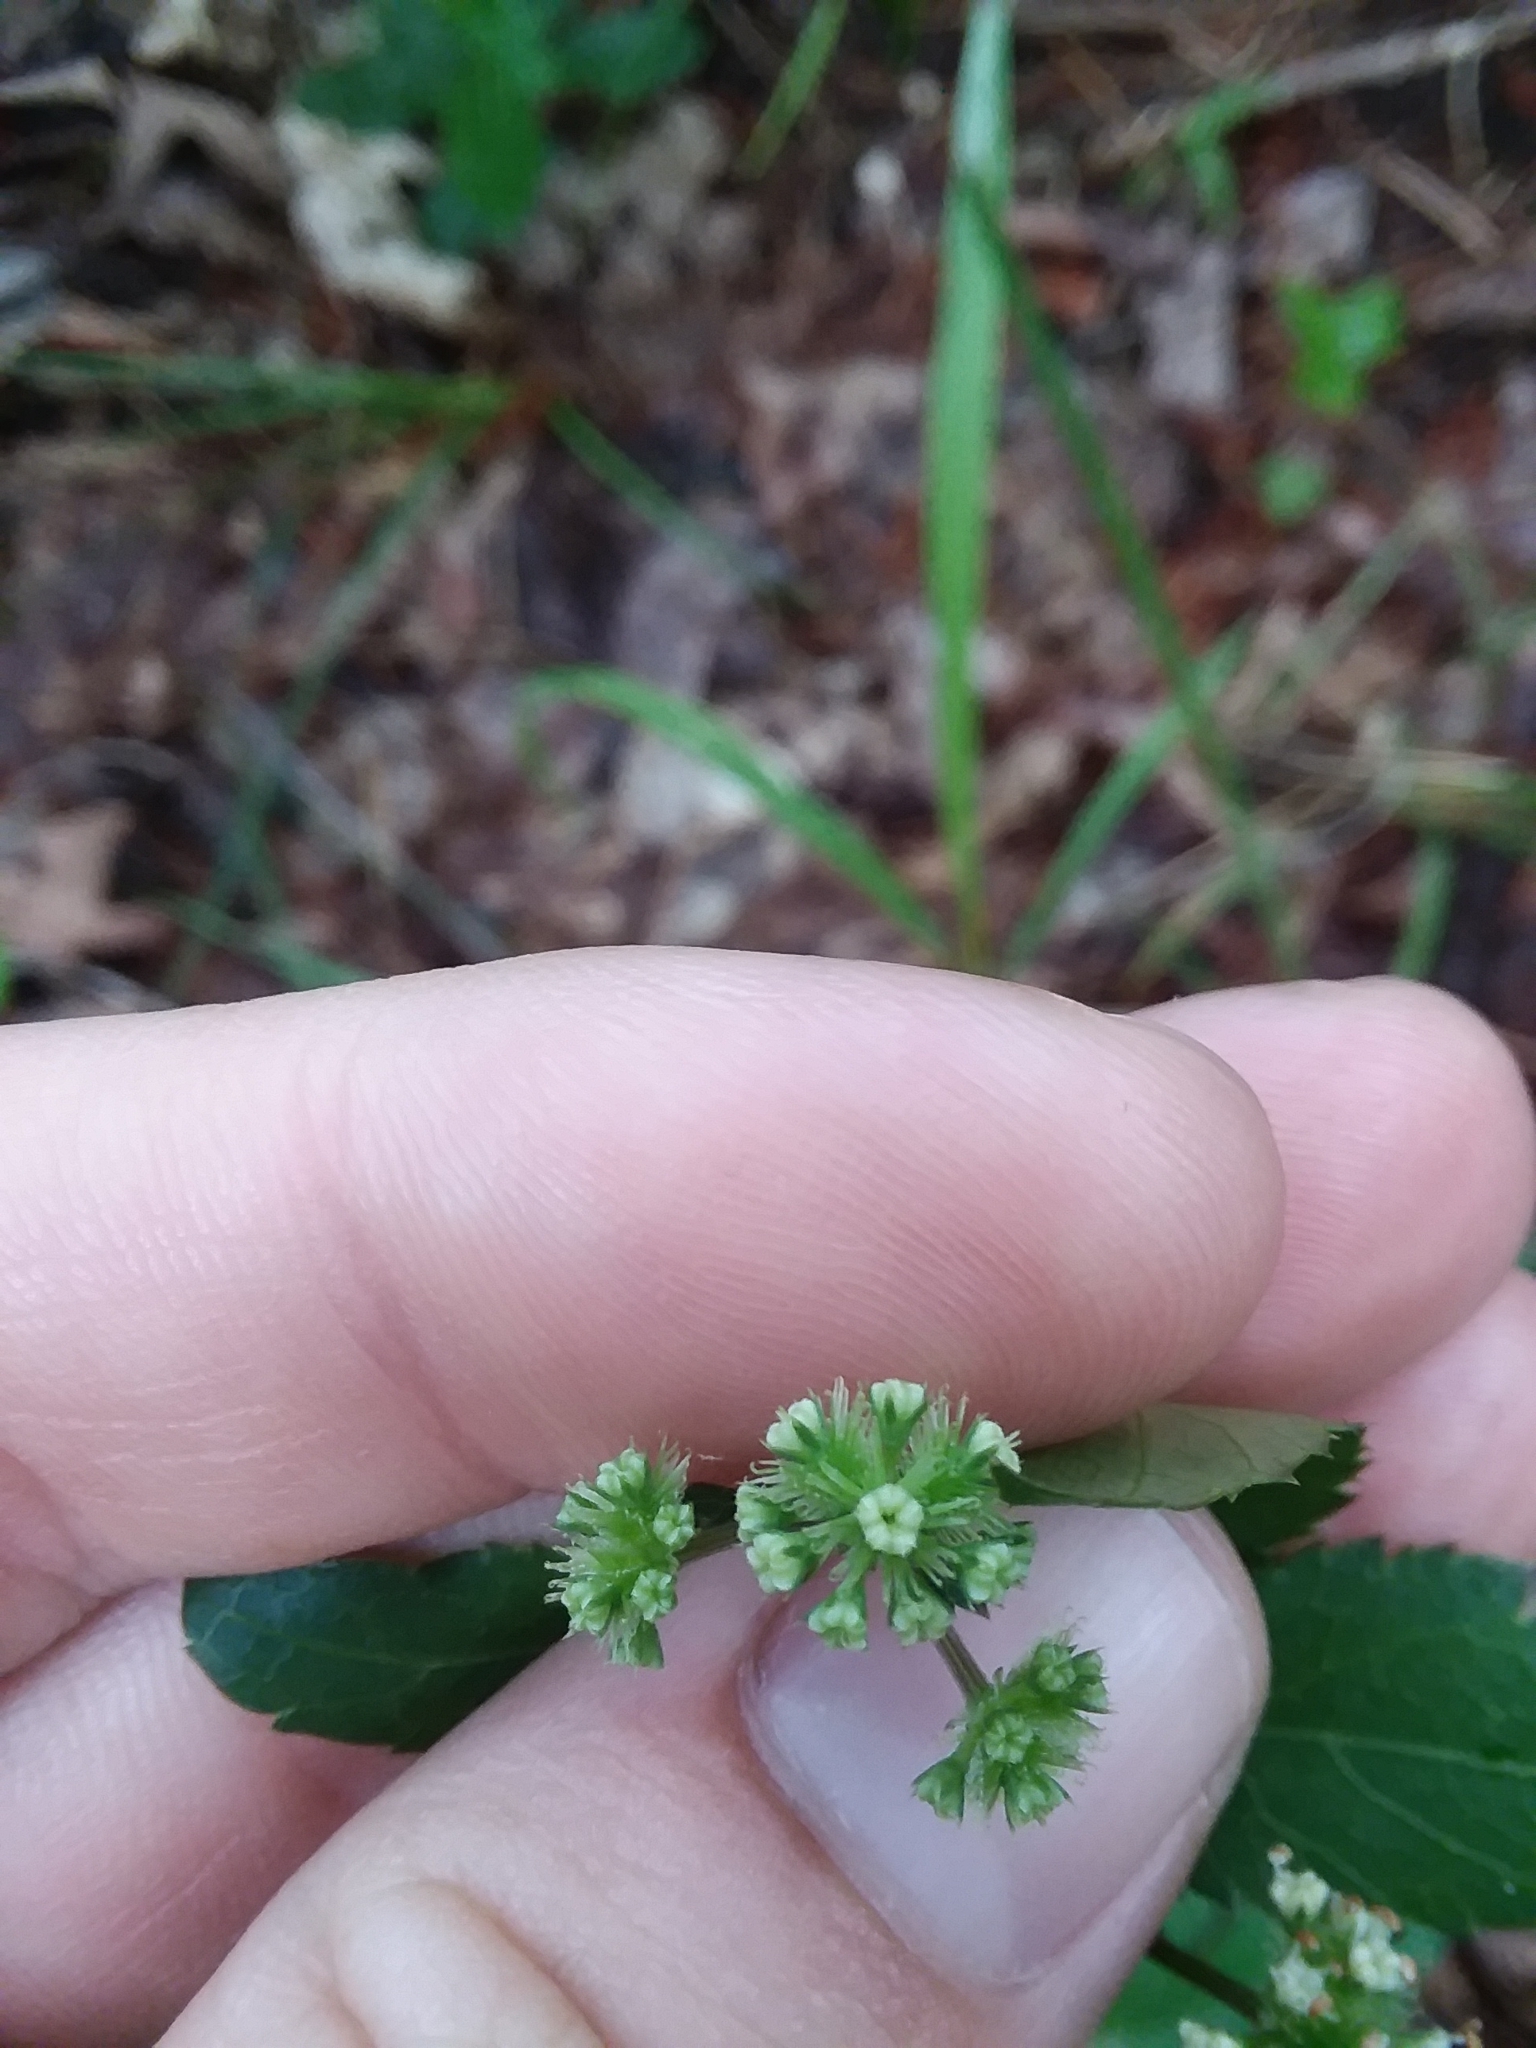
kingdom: Plantae
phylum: Tracheophyta
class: Magnoliopsida
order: Apiales
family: Apiaceae
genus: Sanicula
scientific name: Sanicula smallii
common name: Small's black snakeroot
